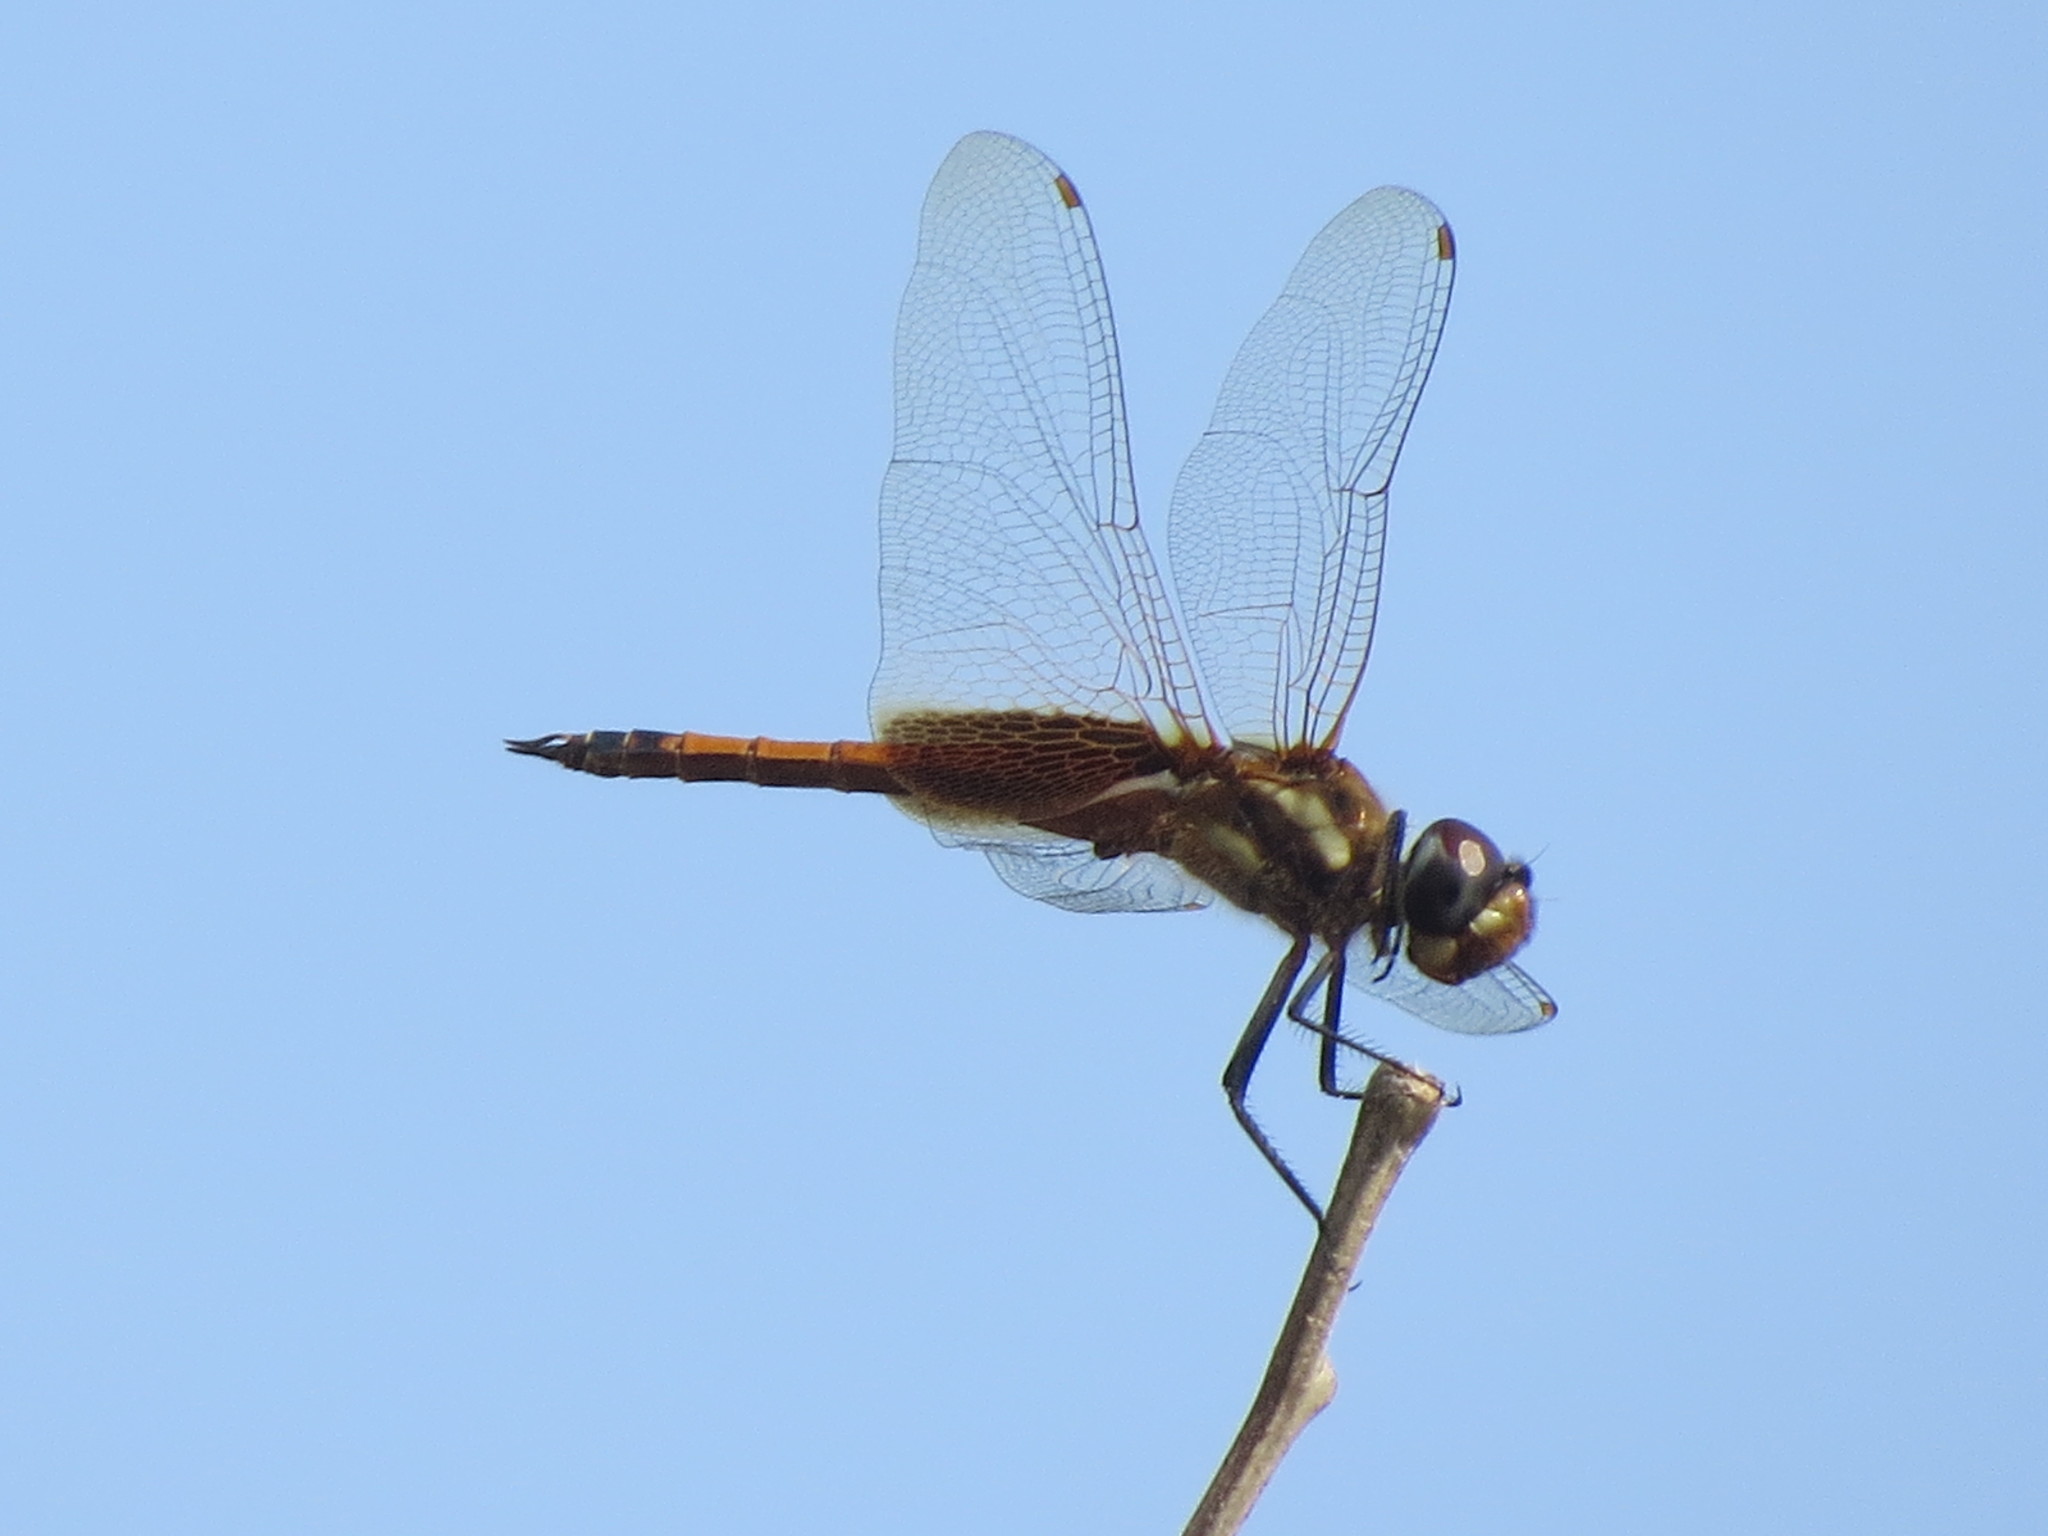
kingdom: Animalia
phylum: Arthropoda
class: Insecta
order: Odonata
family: Libellulidae
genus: Tramea
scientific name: Tramea darwini
